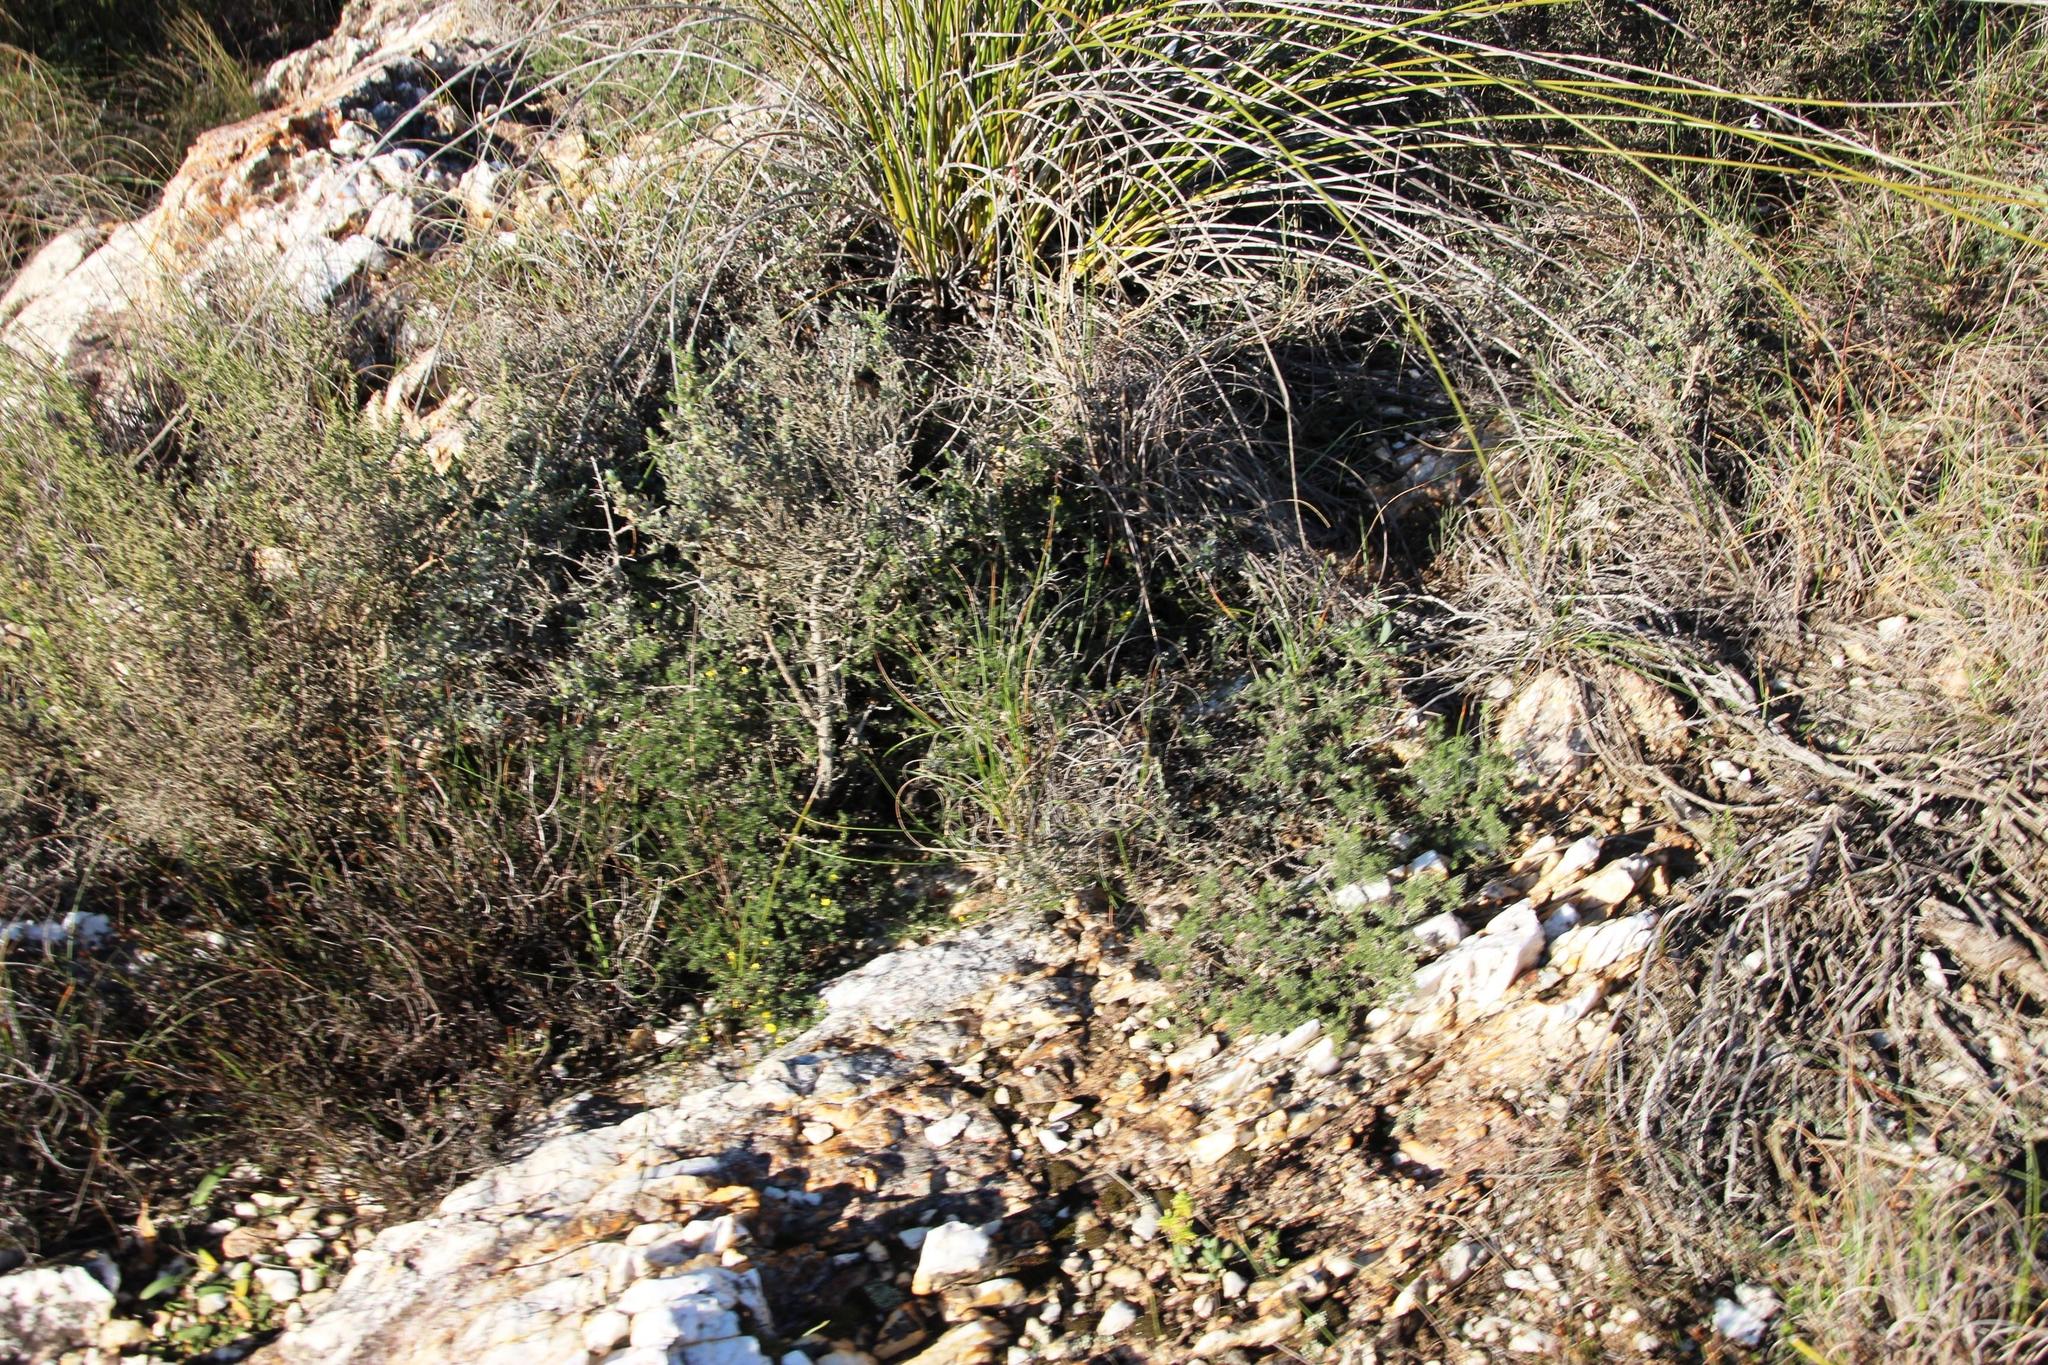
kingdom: Plantae
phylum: Tracheophyta
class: Magnoliopsida
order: Fabales
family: Fabaceae
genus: Aspalathus
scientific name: Aspalathus incomta
